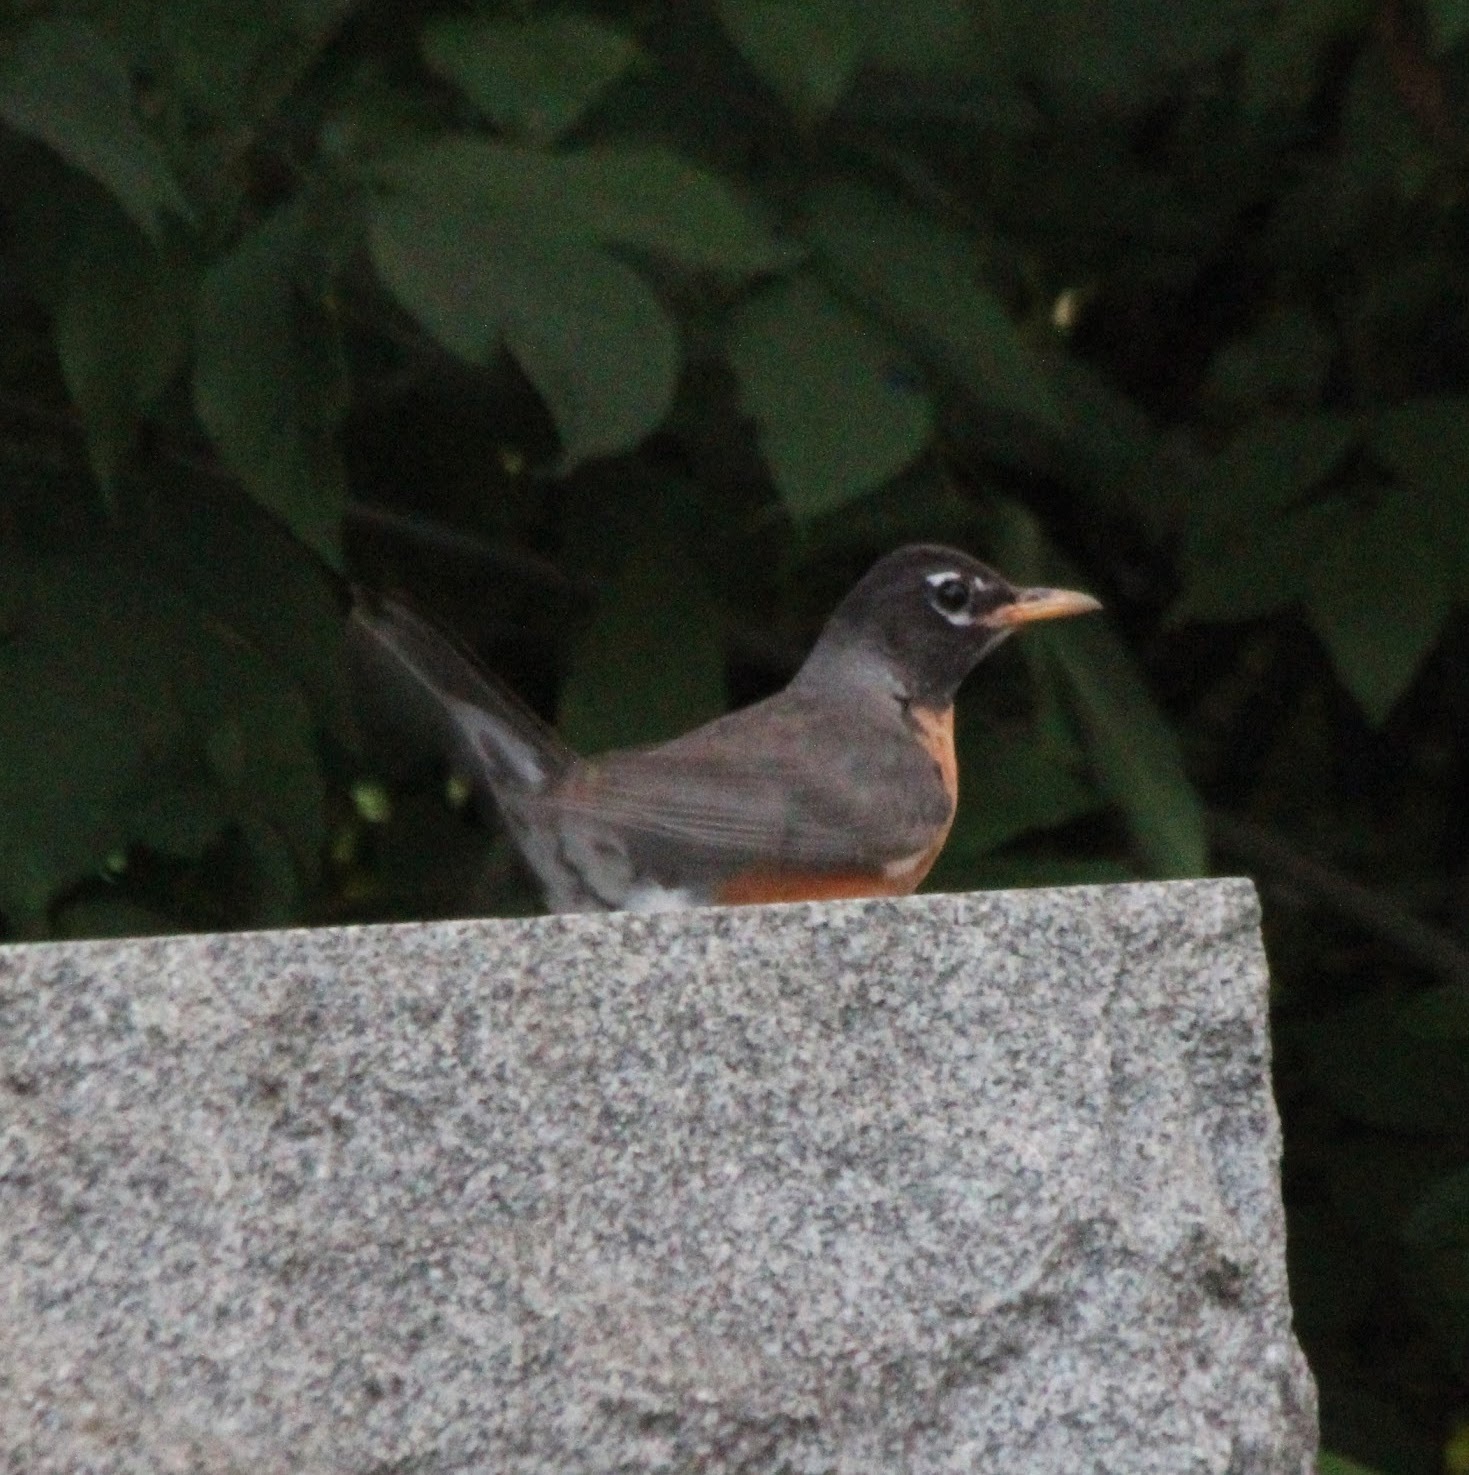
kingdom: Animalia
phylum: Chordata
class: Aves
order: Passeriformes
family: Turdidae
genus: Turdus
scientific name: Turdus migratorius
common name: American robin
